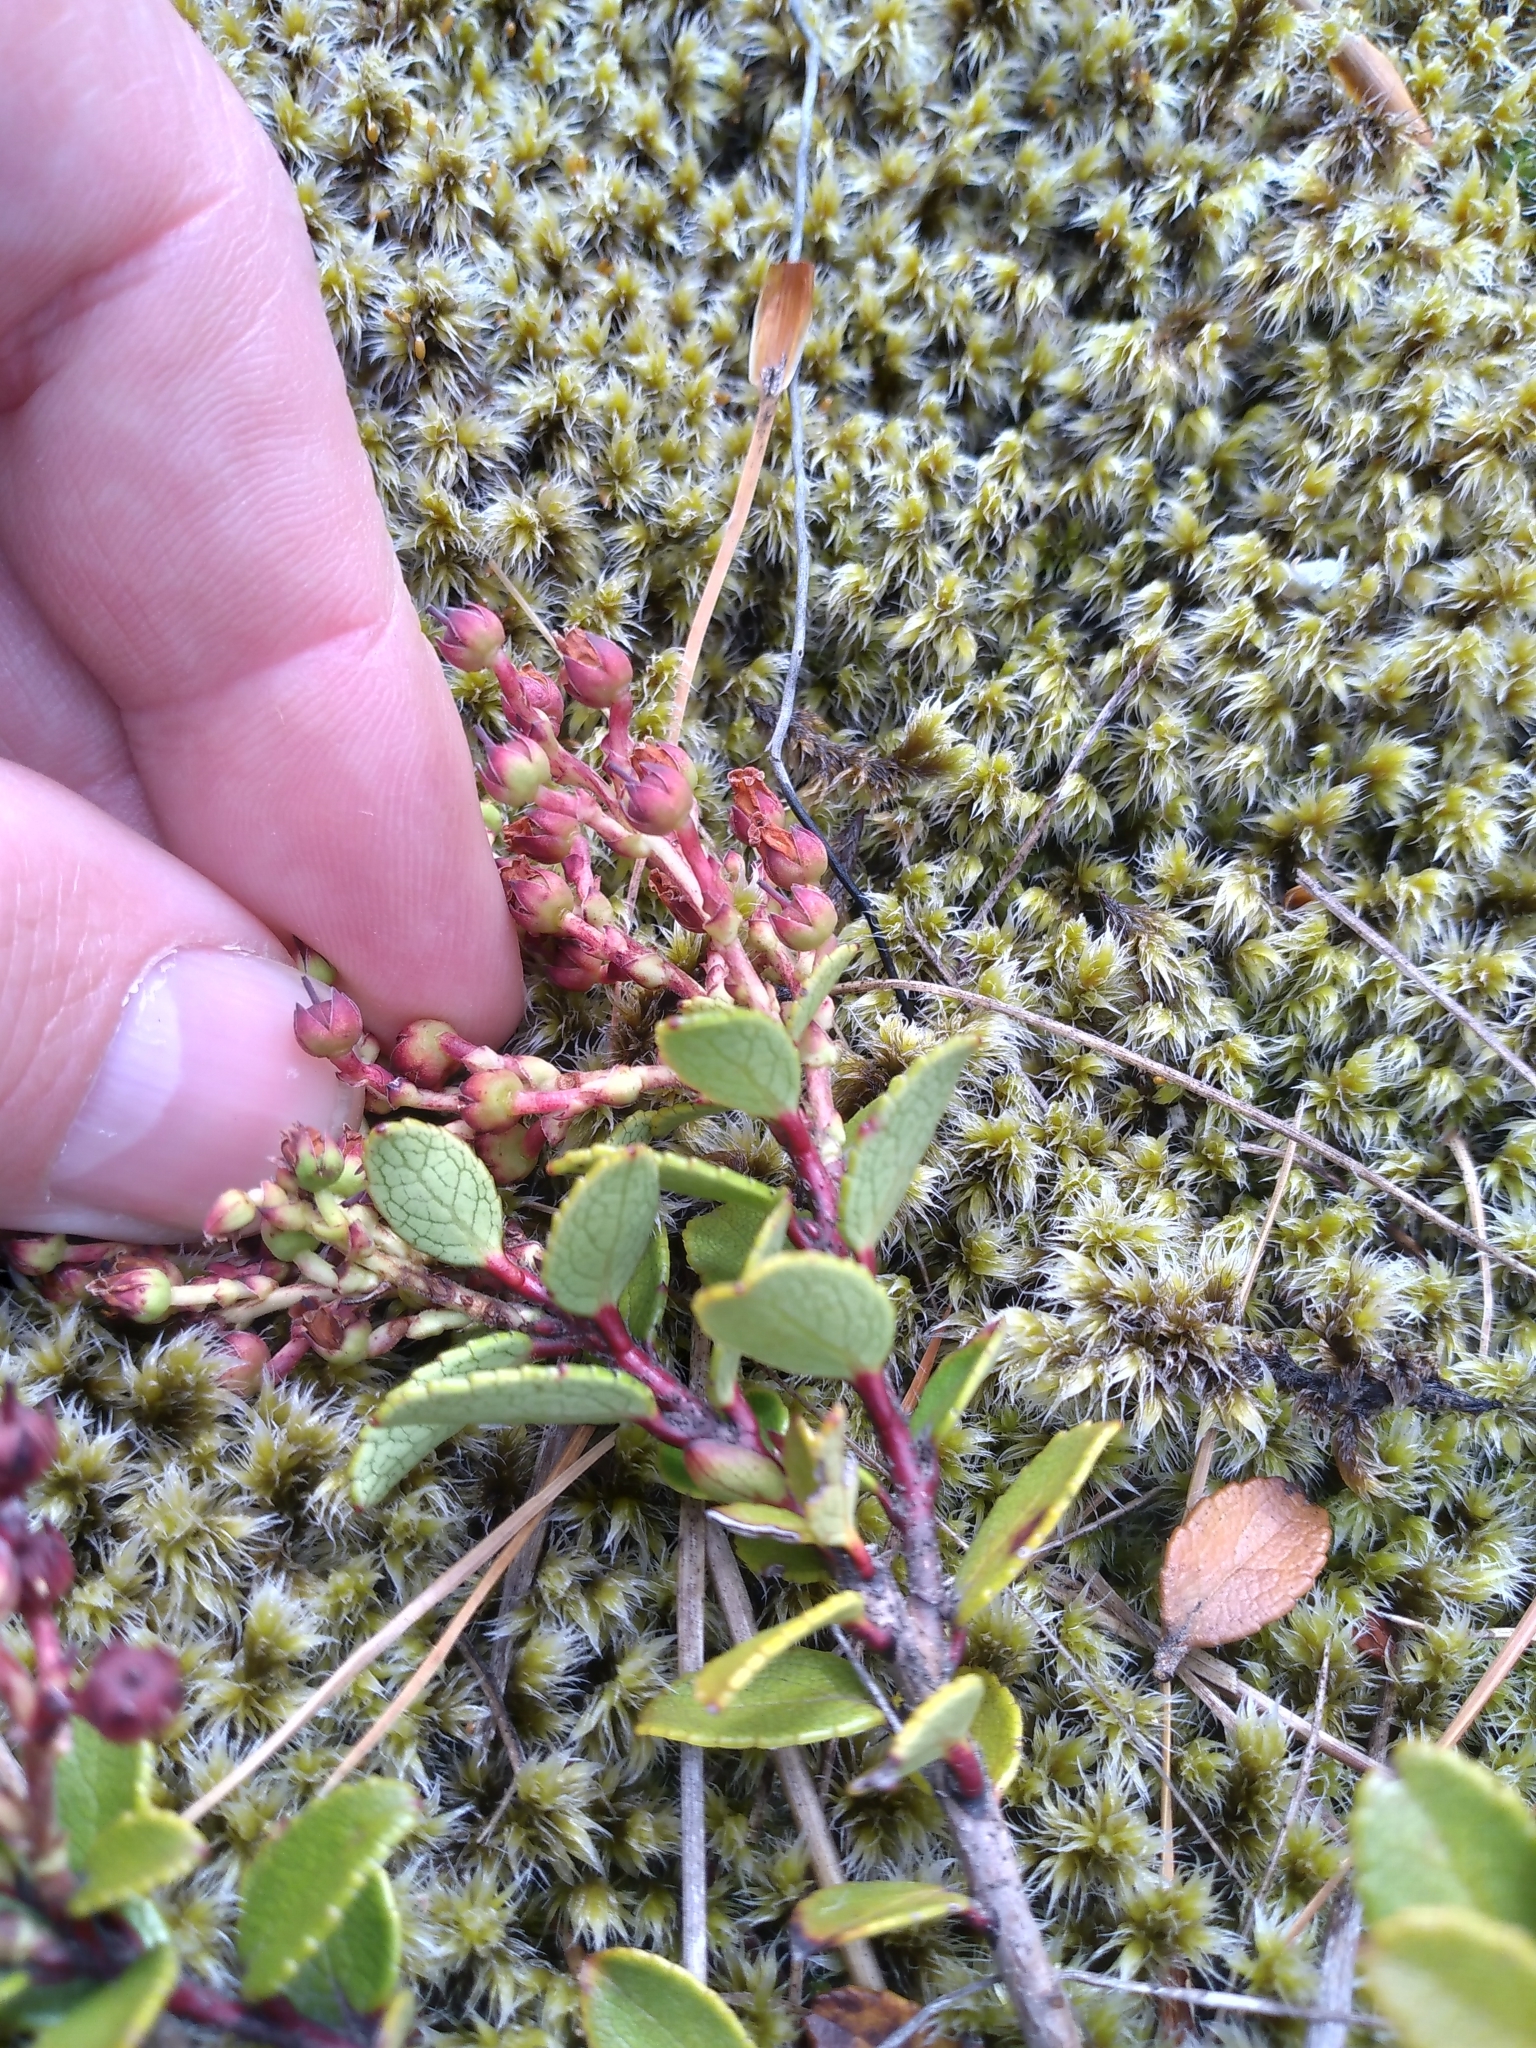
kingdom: Plantae
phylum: Tracheophyta
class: Magnoliopsida
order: Ericales
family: Ericaceae
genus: Gaultheria
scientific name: Gaultheria crassa
